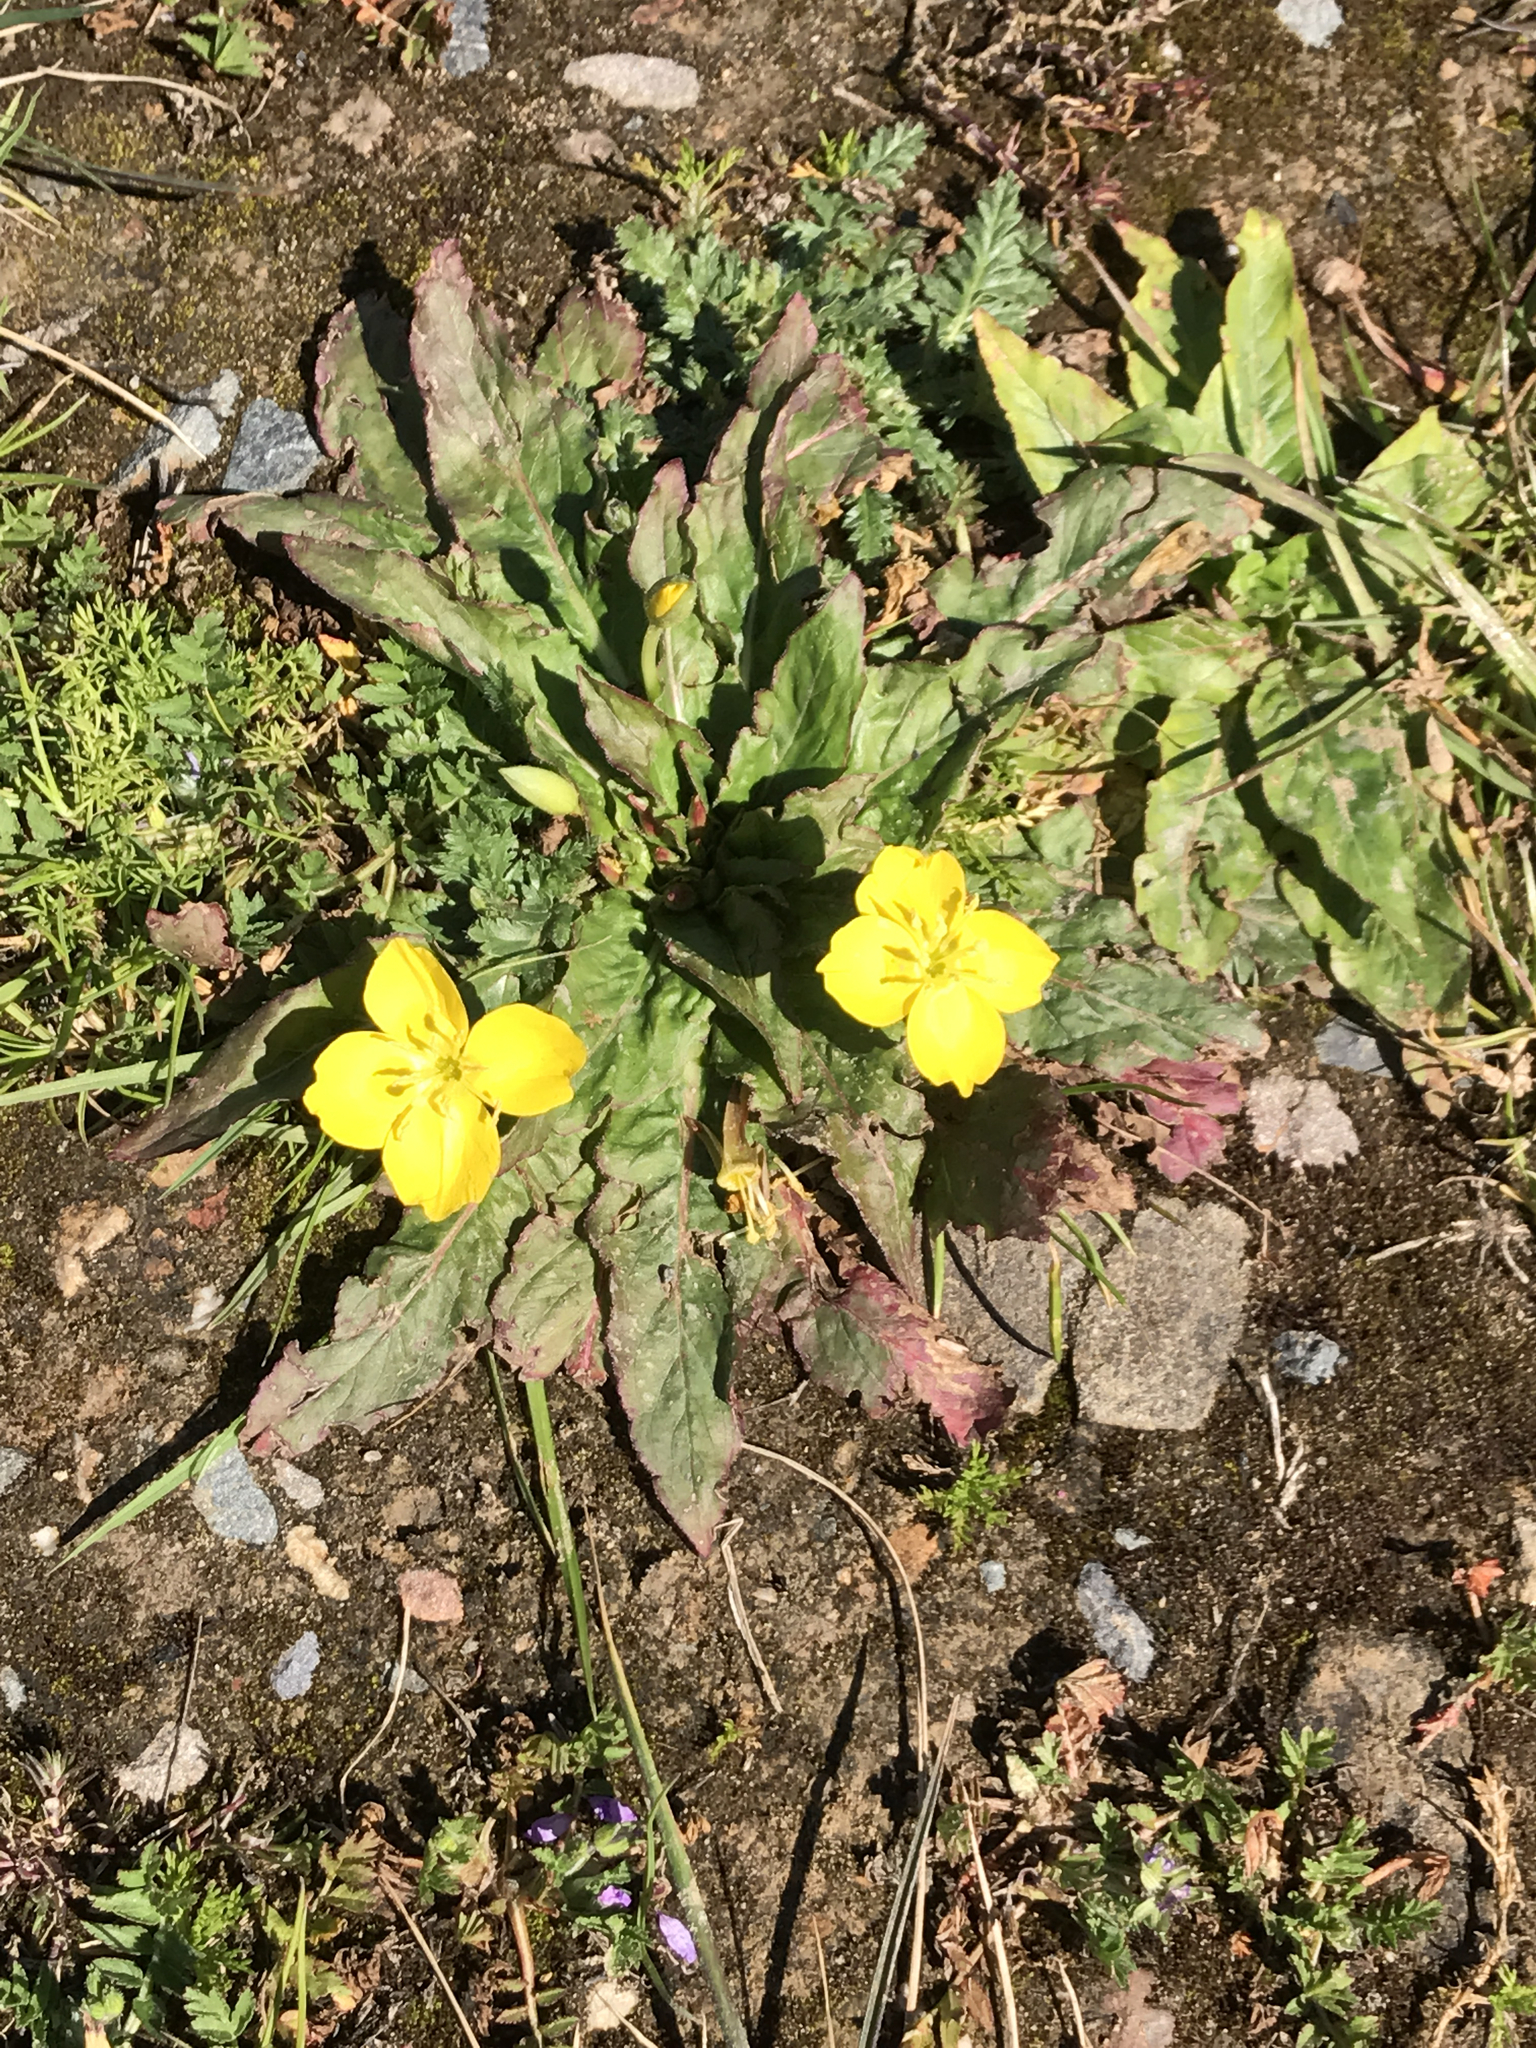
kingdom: Plantae
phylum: Tracheophyta
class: Magnoliopsida
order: Myrtales
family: Onagraceae
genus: Taraxia
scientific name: Taraxia ovata
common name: Goldeneggs
